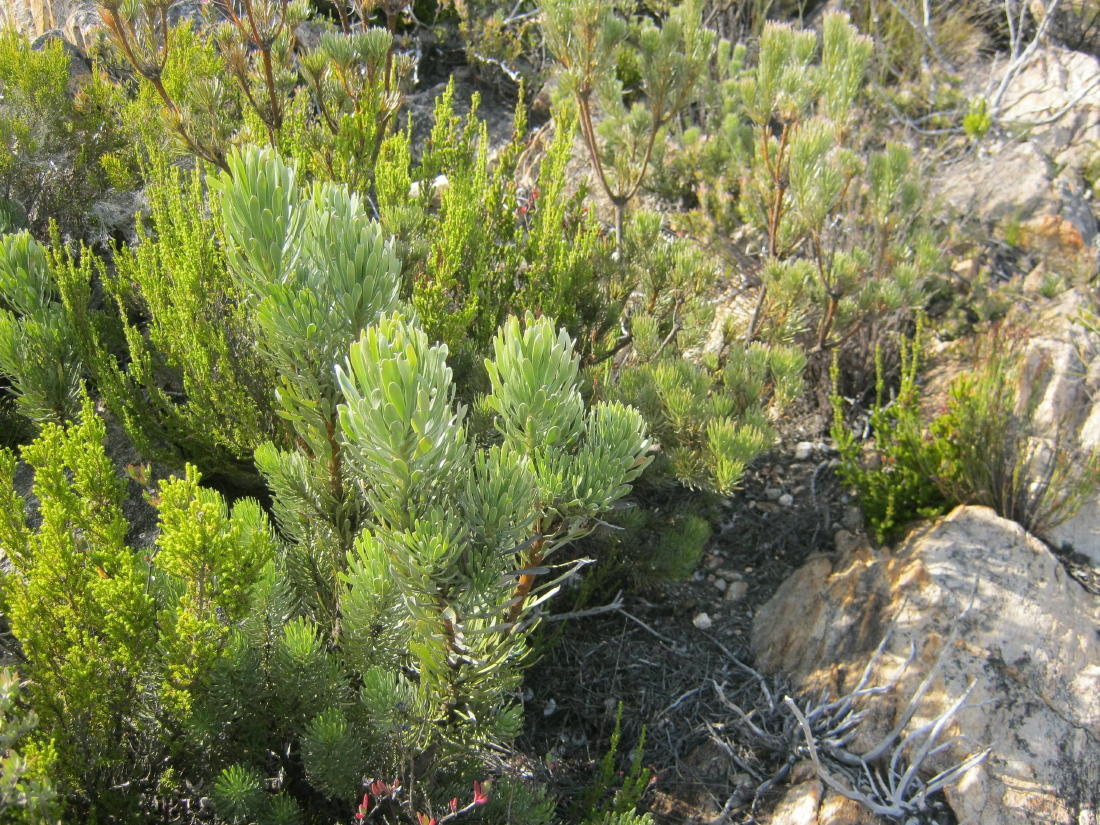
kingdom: Plantae
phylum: Tracheophyta
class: Magnoliopsida
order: Proteales
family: Proteaceae
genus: Leucadendron
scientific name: Leucadendron album
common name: Linear-leaf conebush
